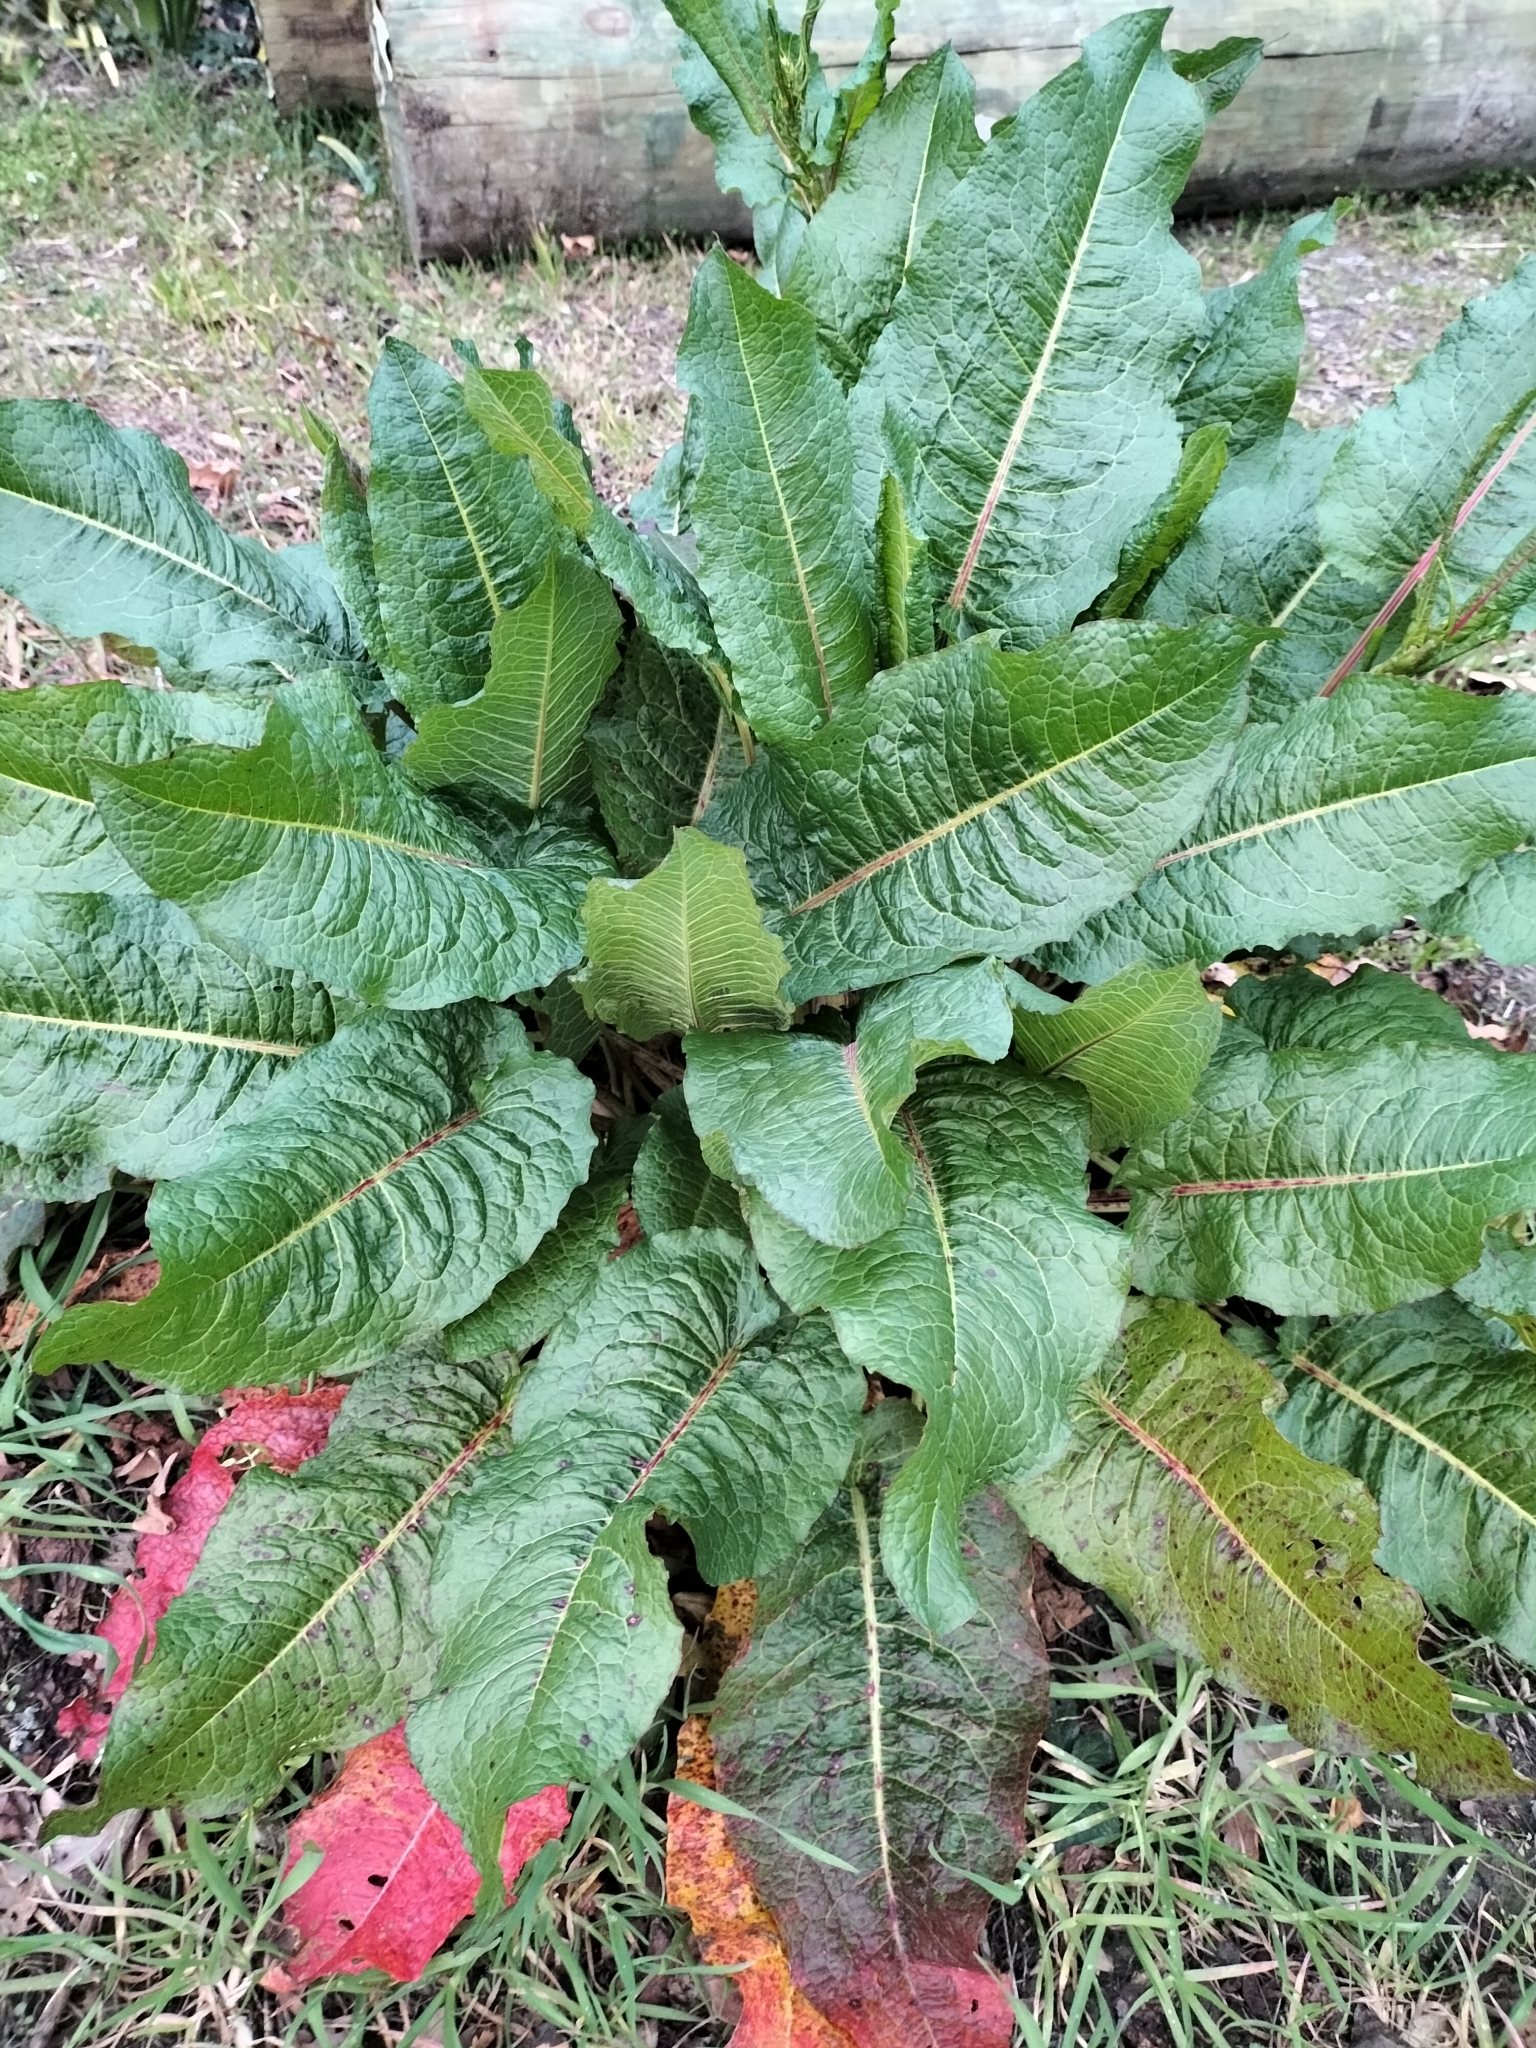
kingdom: Plantae
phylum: Tracheophyta
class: Magnoliopsida
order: Caryophyllales
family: Polygonaceae
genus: Rumex
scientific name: Rumex obtusifolius
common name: Bitter dock
